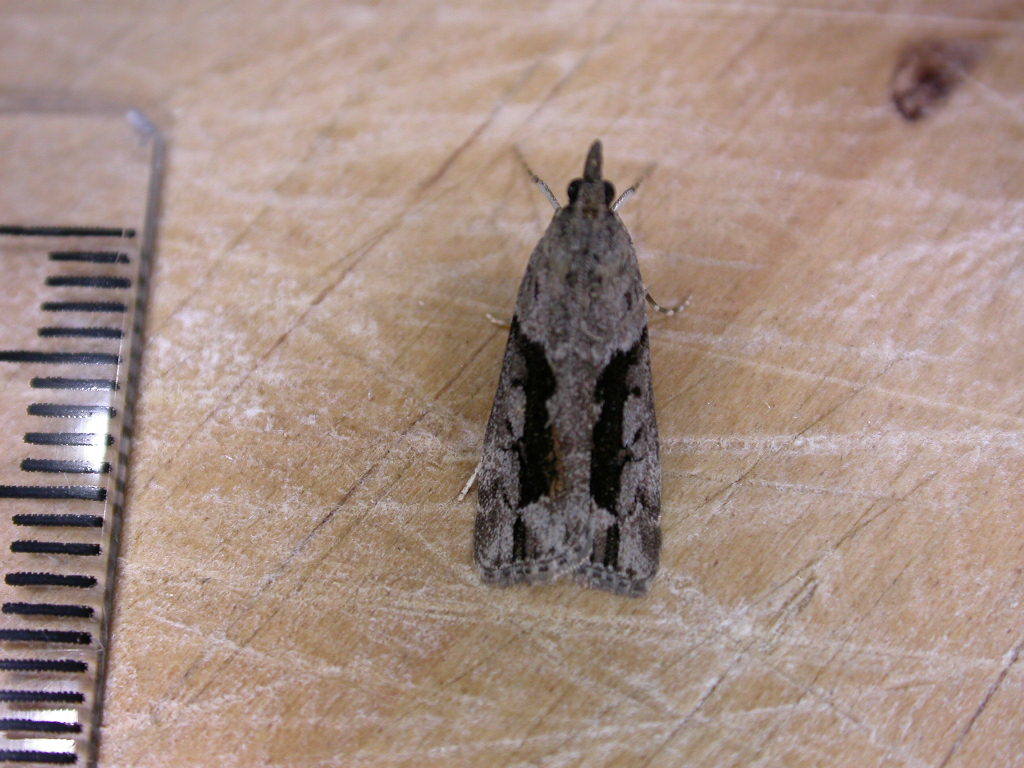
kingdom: Animalia
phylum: Arthropoda
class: Insecta
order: Lepidoptera
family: Crambidae
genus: Eudonia
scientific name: Eudonia submarginalis
